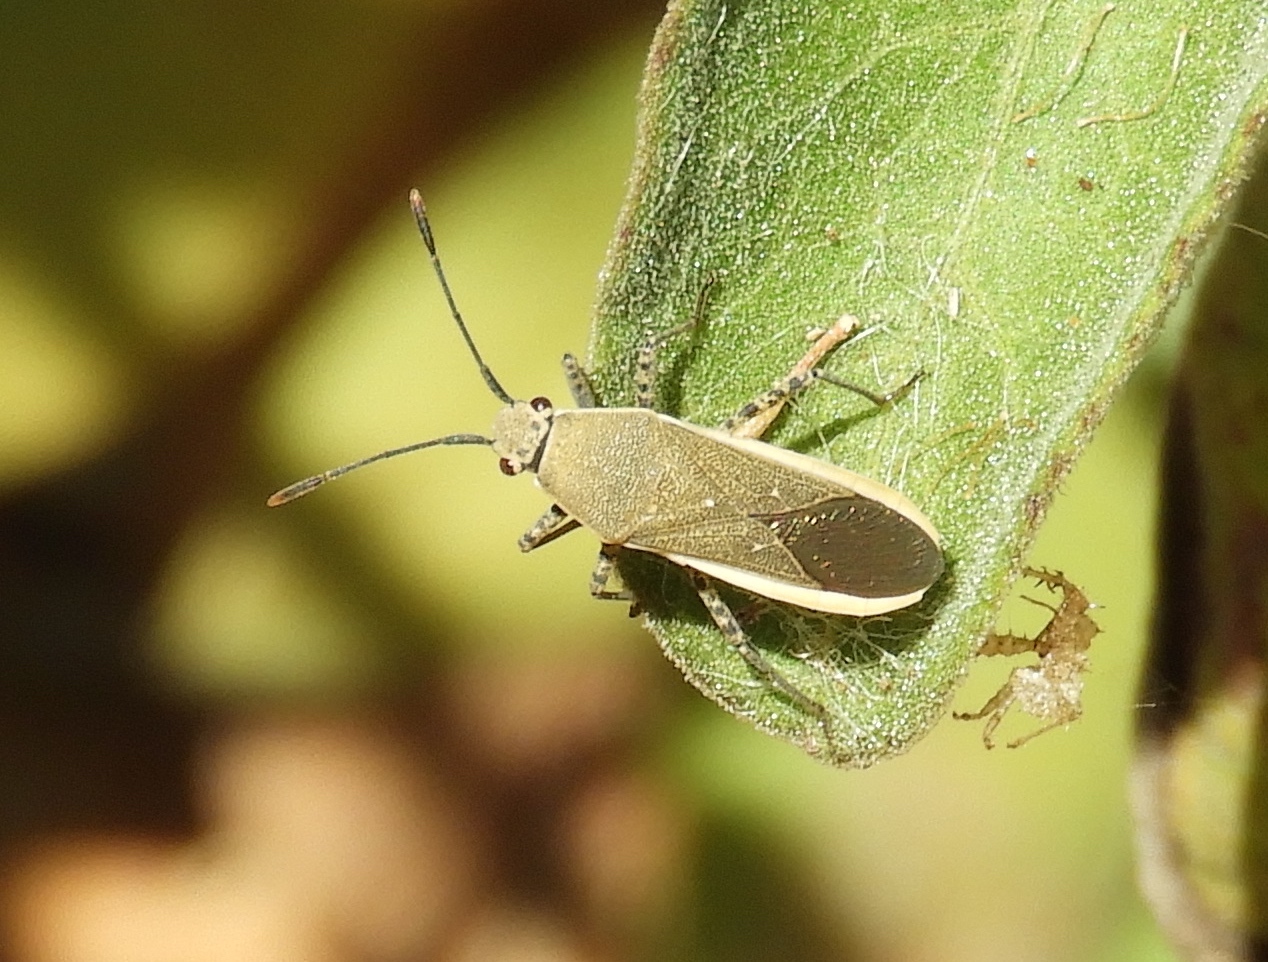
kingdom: Animalia
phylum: Arthropoda
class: Insecta
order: Hemiptera
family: Coreidae
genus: Catorhintha
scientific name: Catorhintha selector
